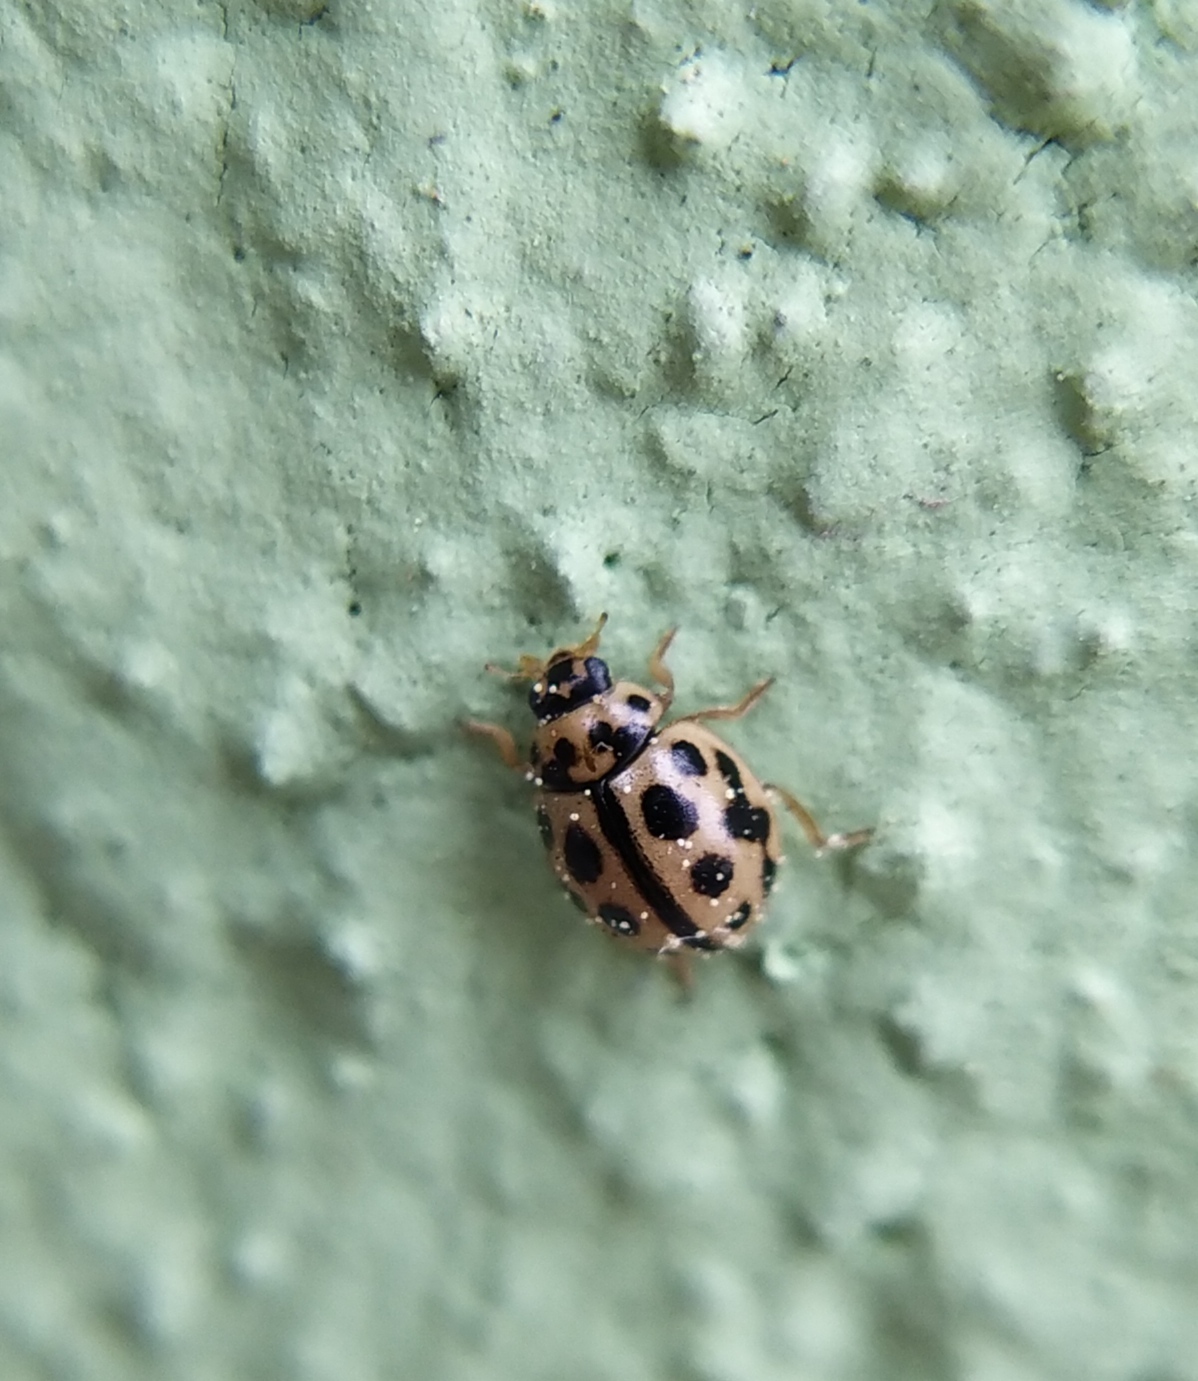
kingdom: Animalia
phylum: Arthropoda
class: Insecta
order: Coleoptera
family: Coccinellidae
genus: Tytthaspis
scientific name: Tytthaspis sedecimpunctata
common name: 16-spot ladybird
